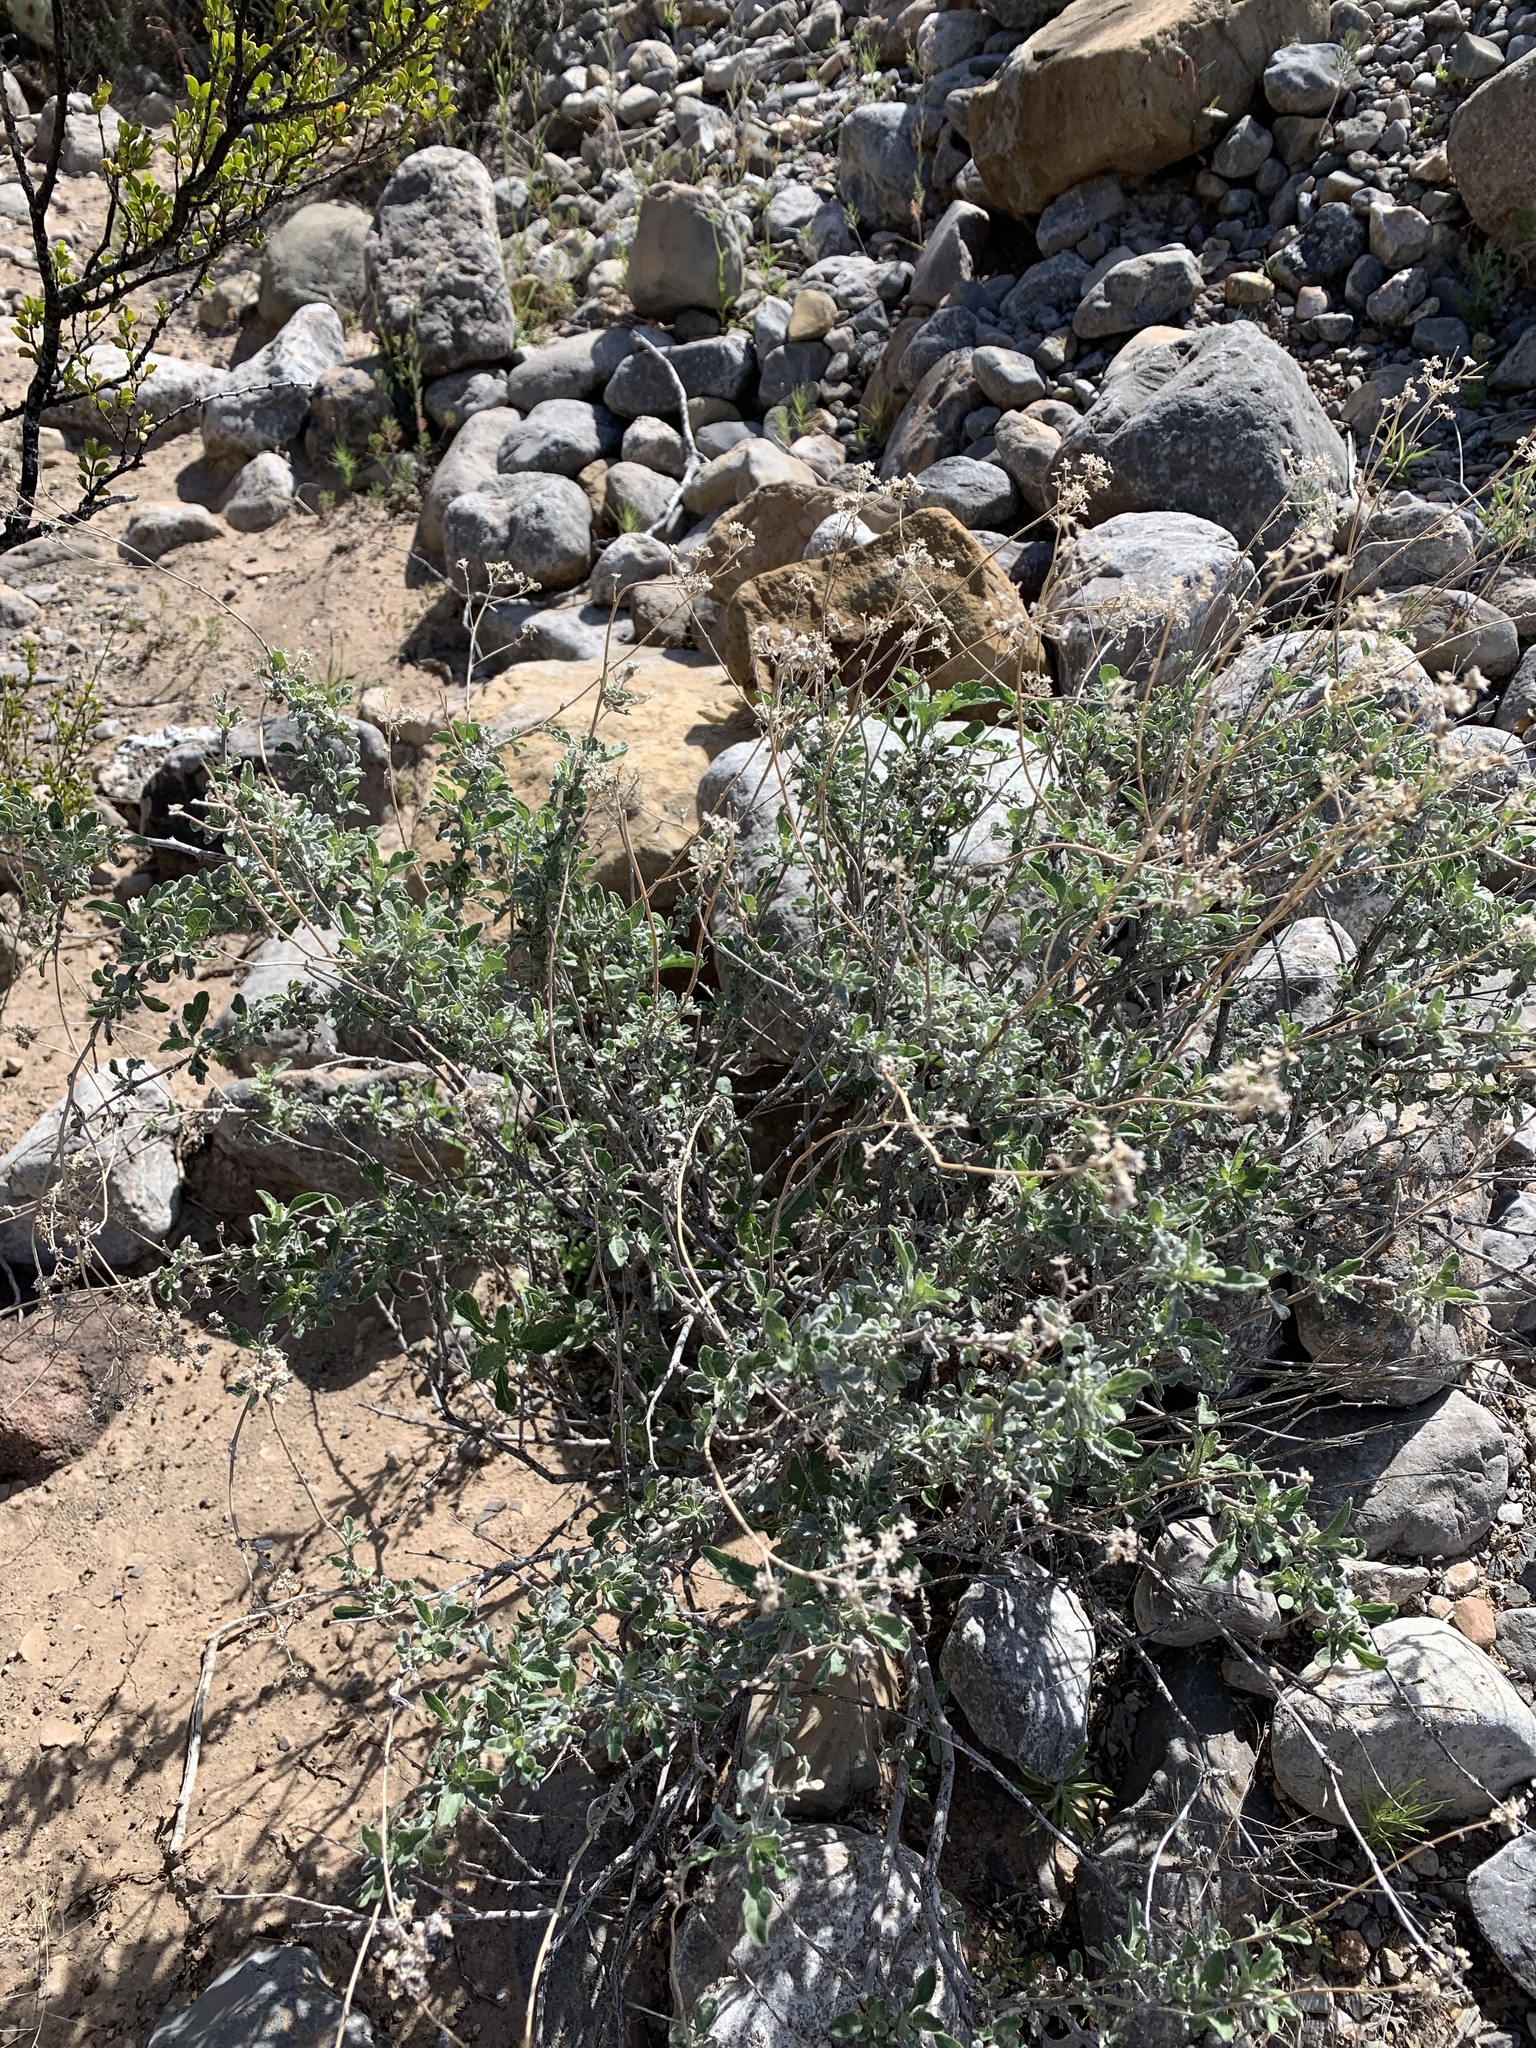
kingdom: Plantae
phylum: Tracheophyta
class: Magnoliopsida
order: Asterales
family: Asteraceae
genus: Parthenium
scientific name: Parthenium incanum
